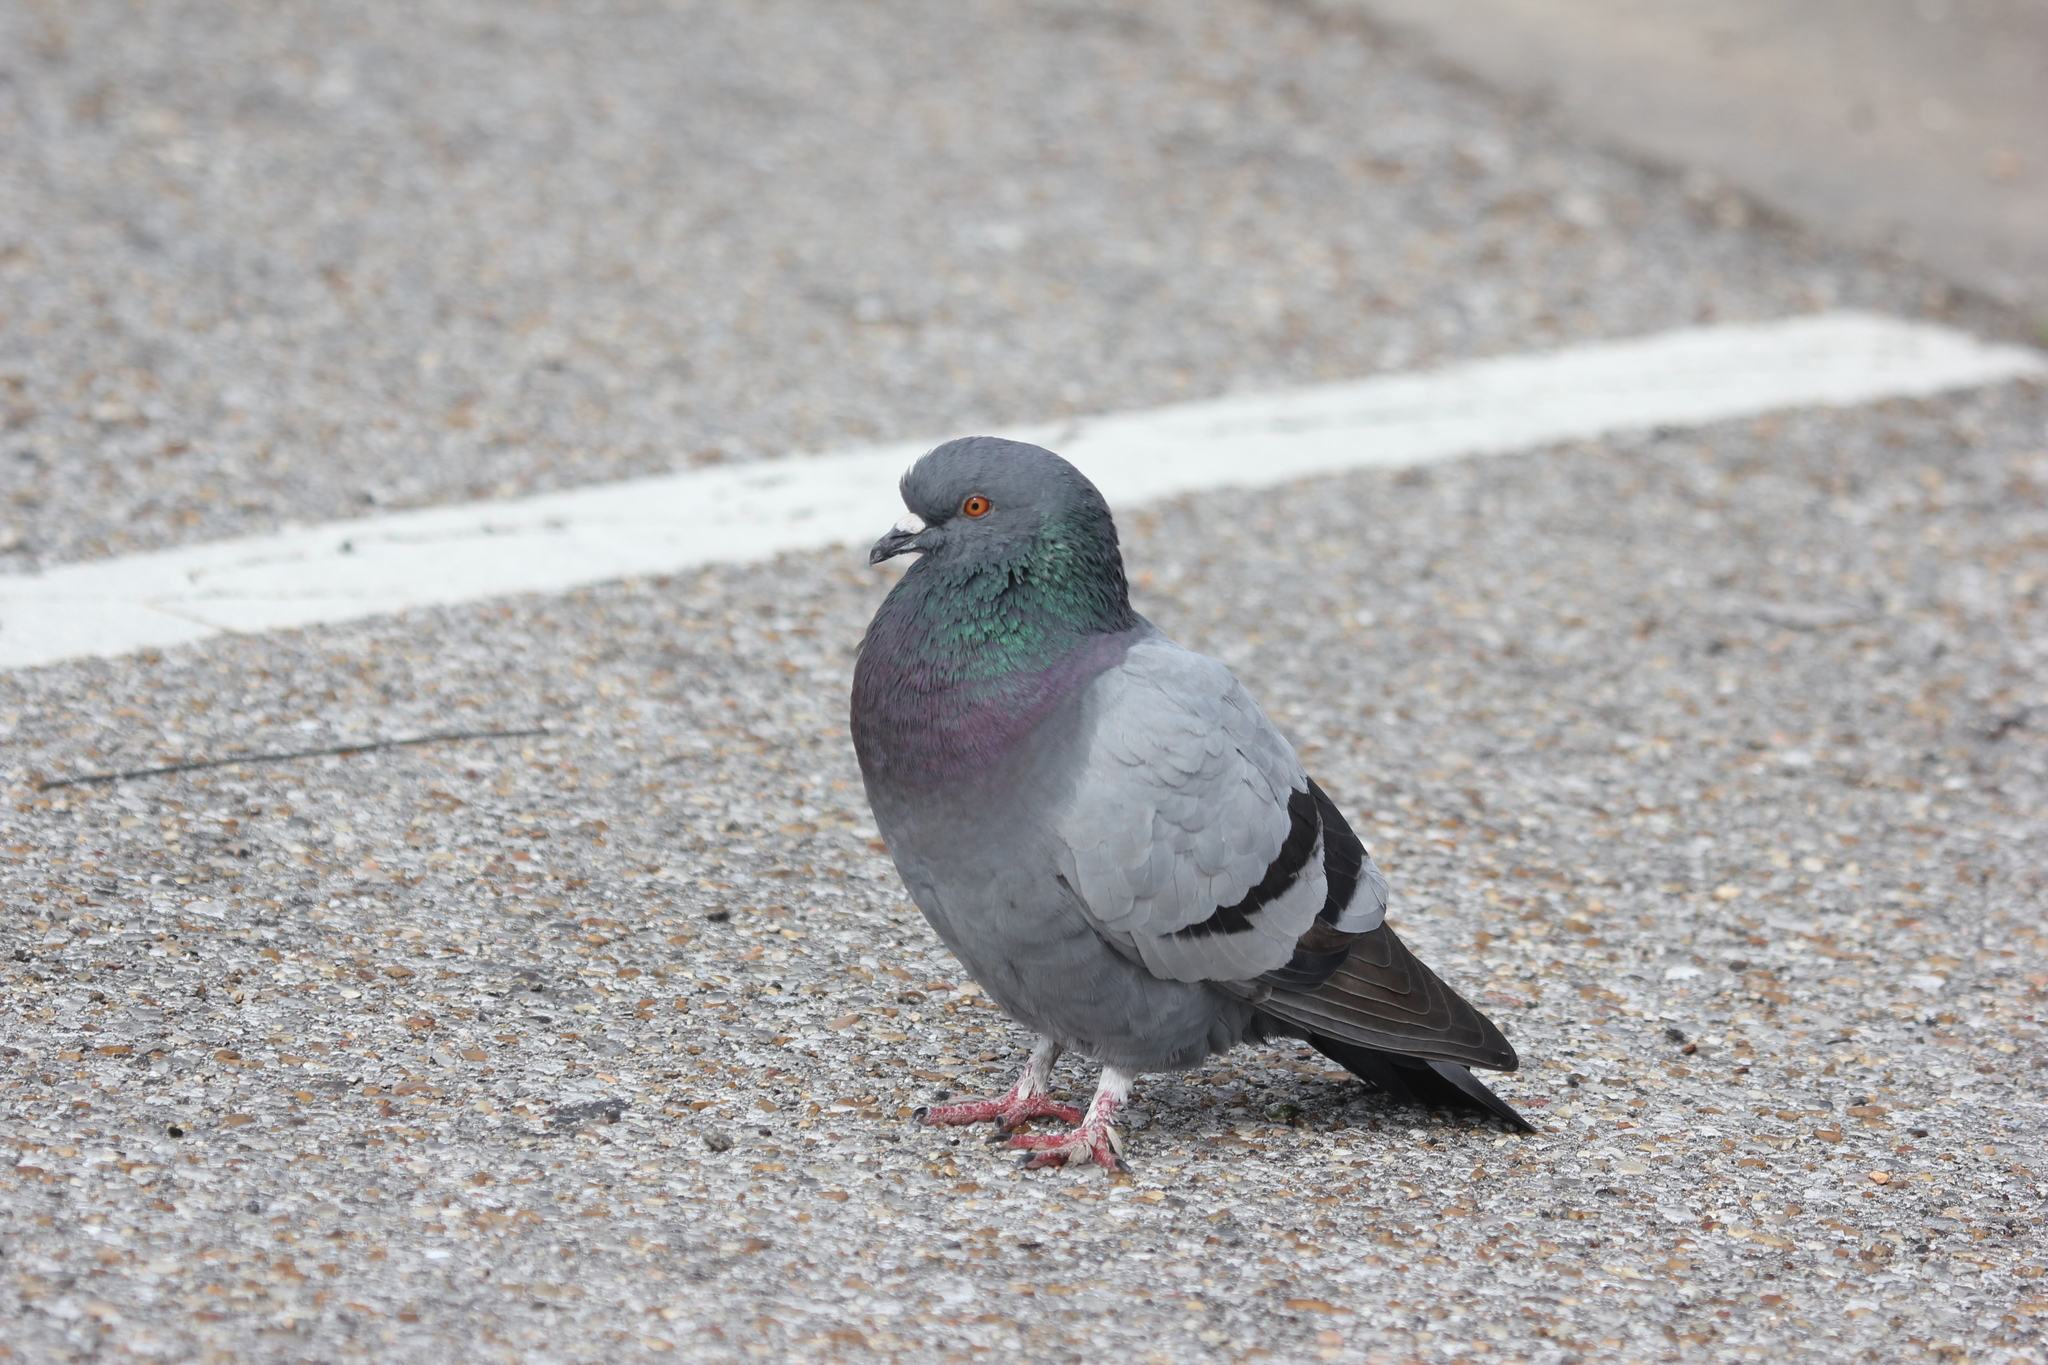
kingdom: Animalia
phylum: Chordata
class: Aves
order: Columbiformes
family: Columbidae
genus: Columba
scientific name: Columba livia
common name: Rock pigeon
